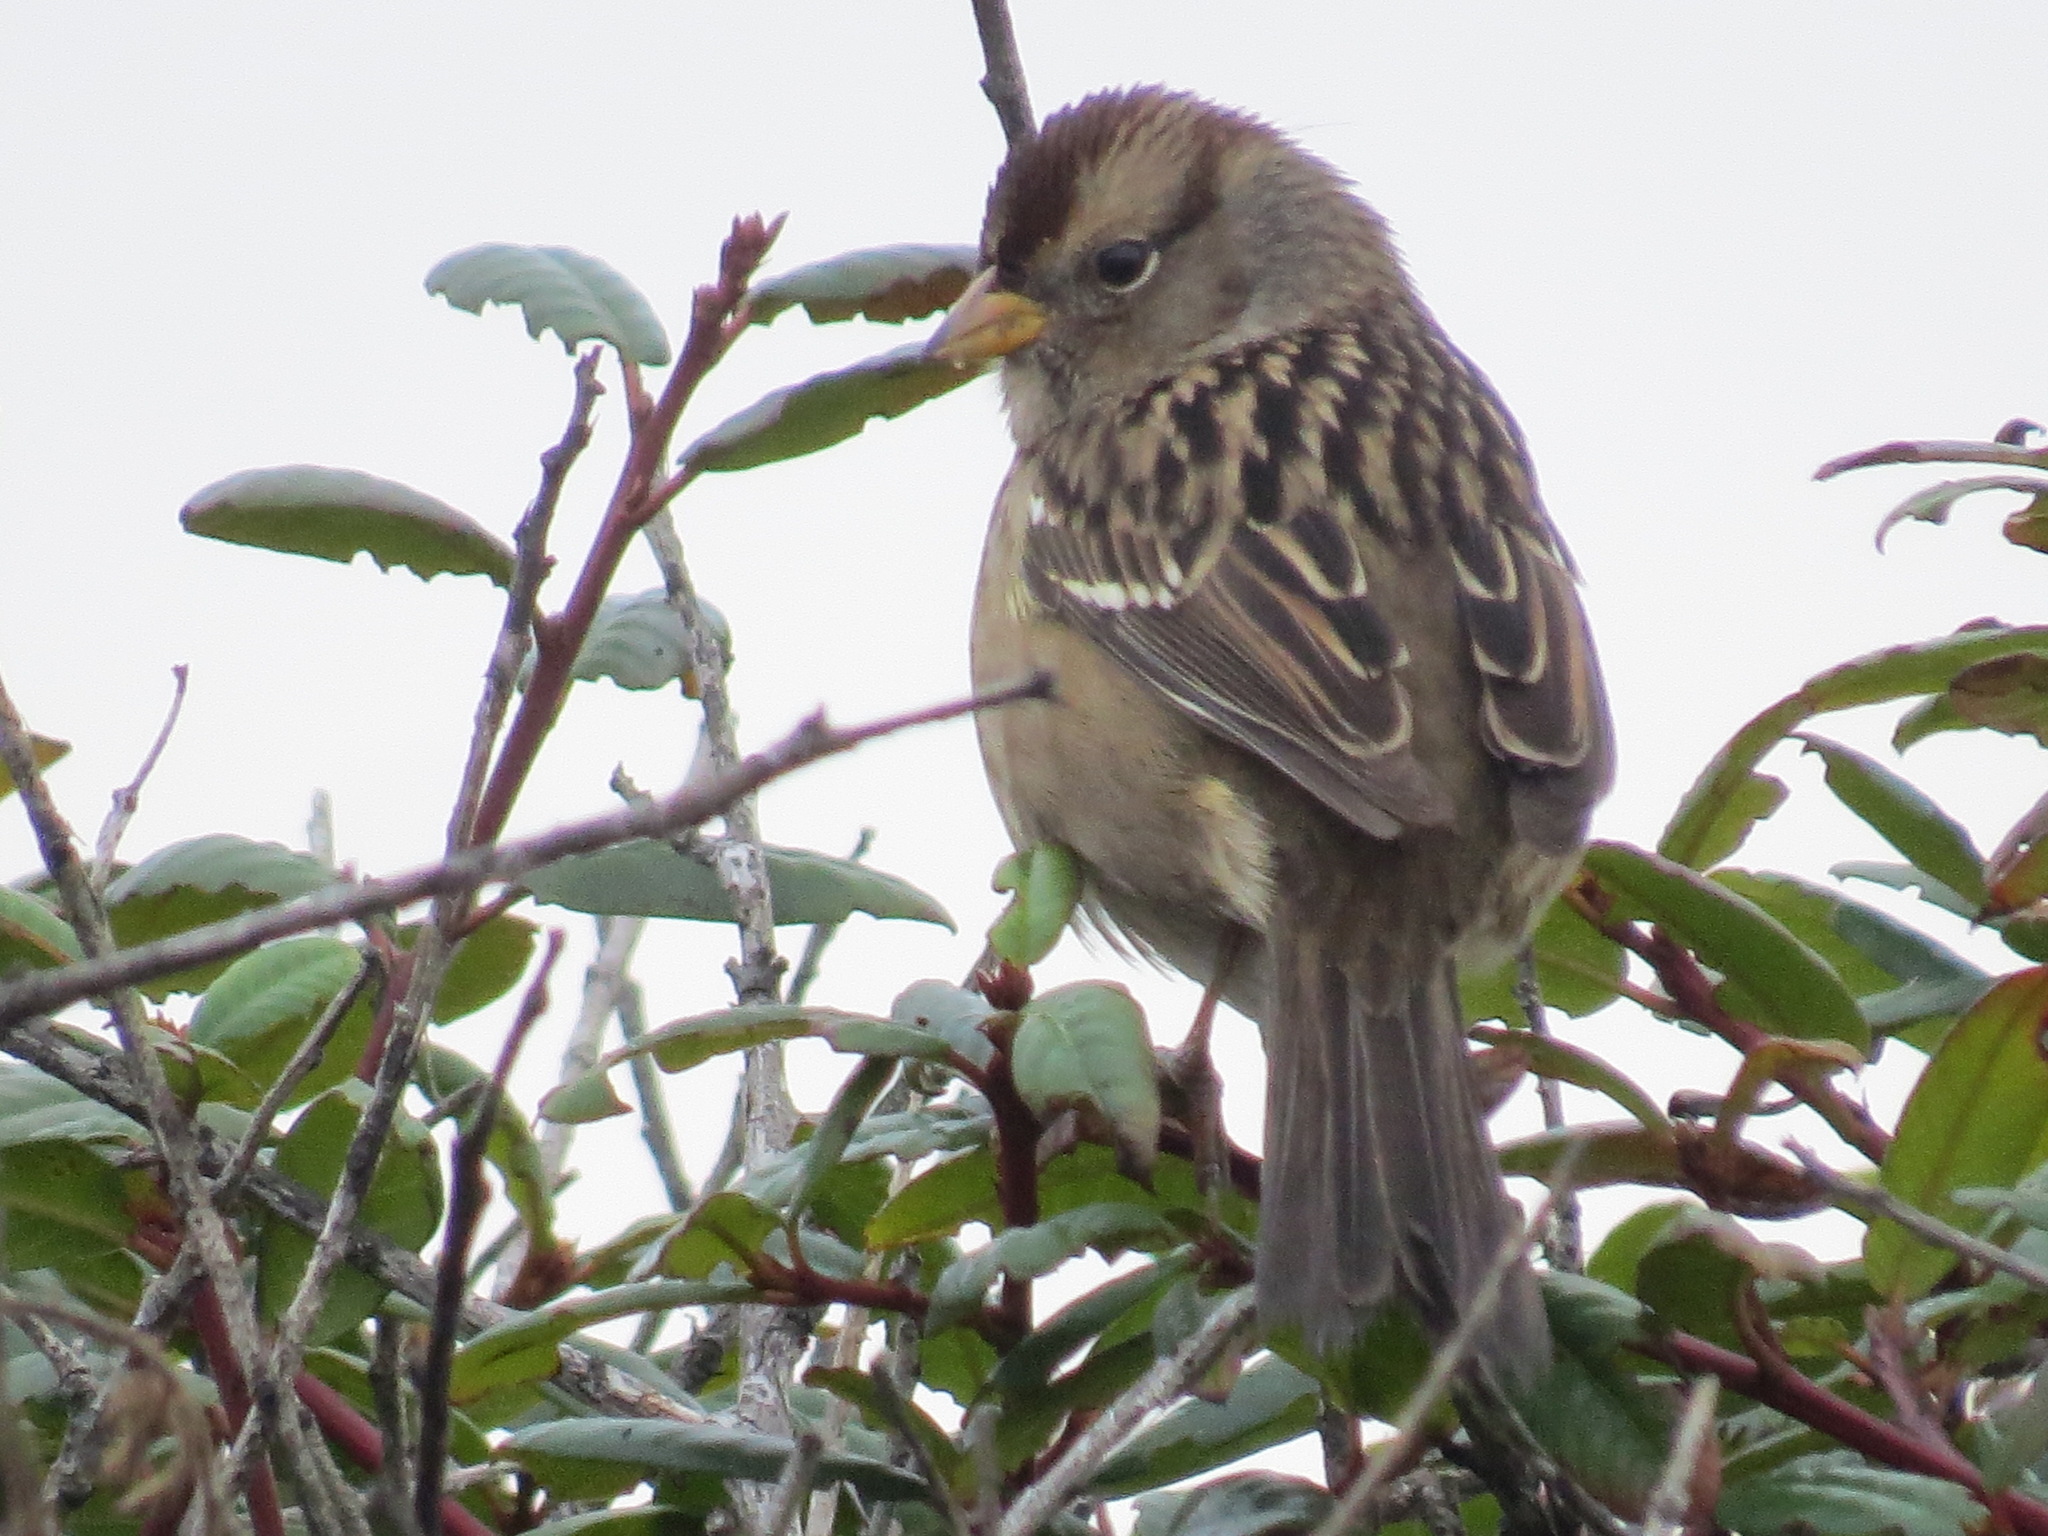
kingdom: Animalia
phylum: Chordata
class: Aves
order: Passeriformes
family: Passerellidae
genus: Zonotrichia
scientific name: Zonotrichia leucophrys
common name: White-crowned sparrow
